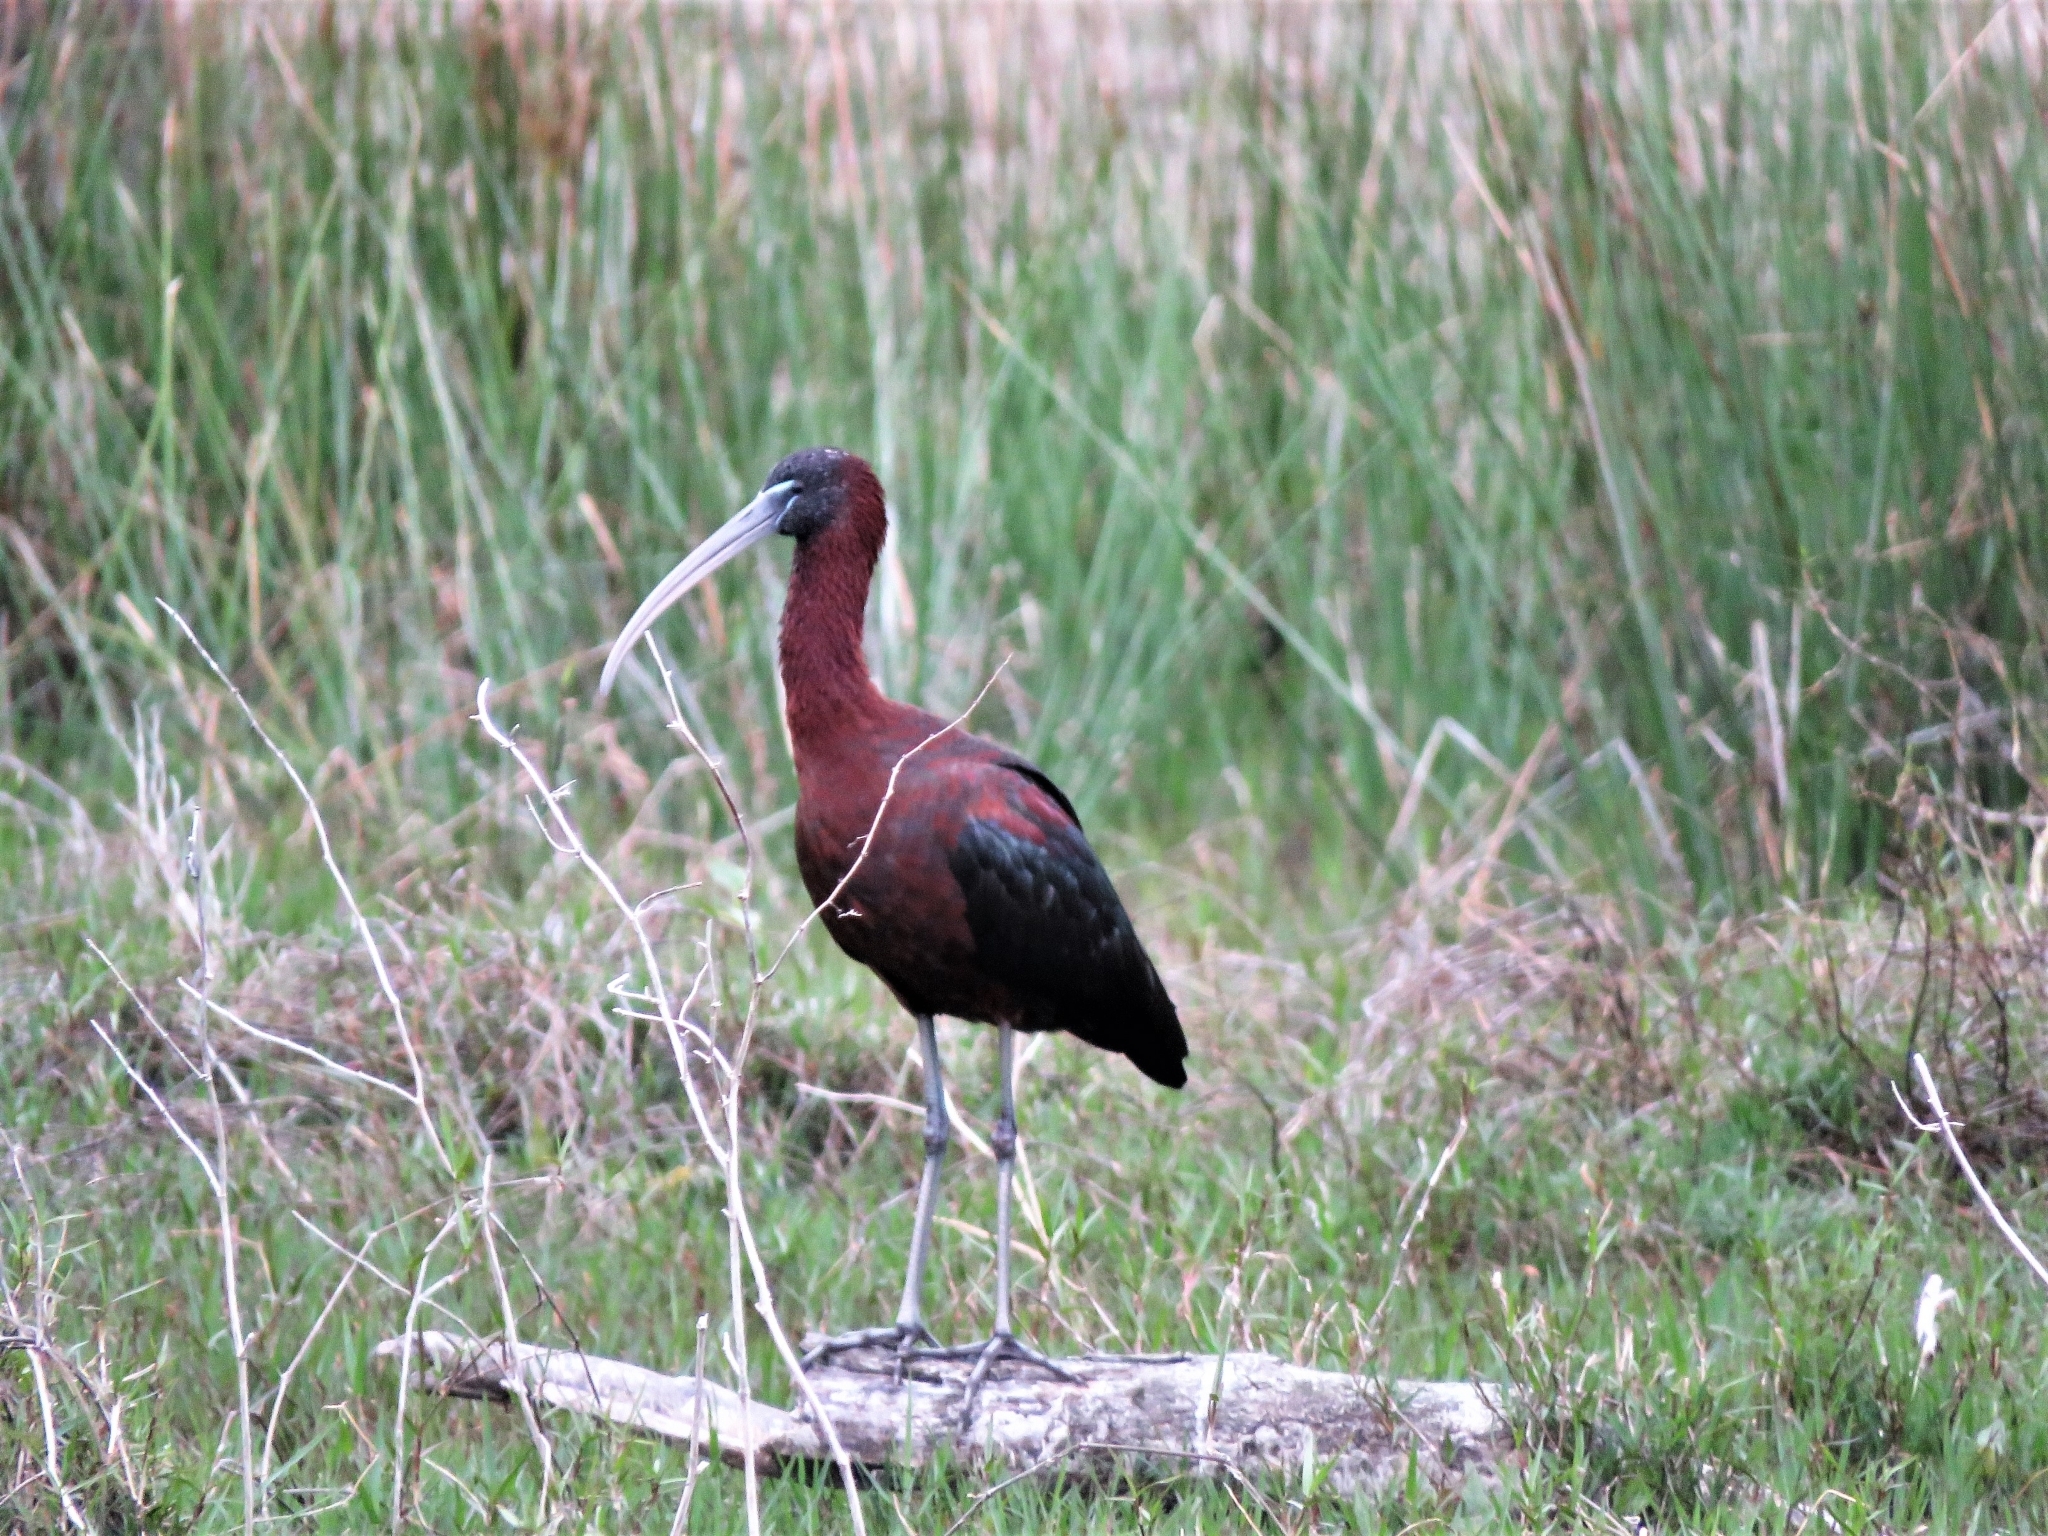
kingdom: Animalia
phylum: Chordata
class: Aves
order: Pelecaniformes
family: Threskiornithidae
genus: Plegadis
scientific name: Plegadis falcinellus
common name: Glossy ibis
